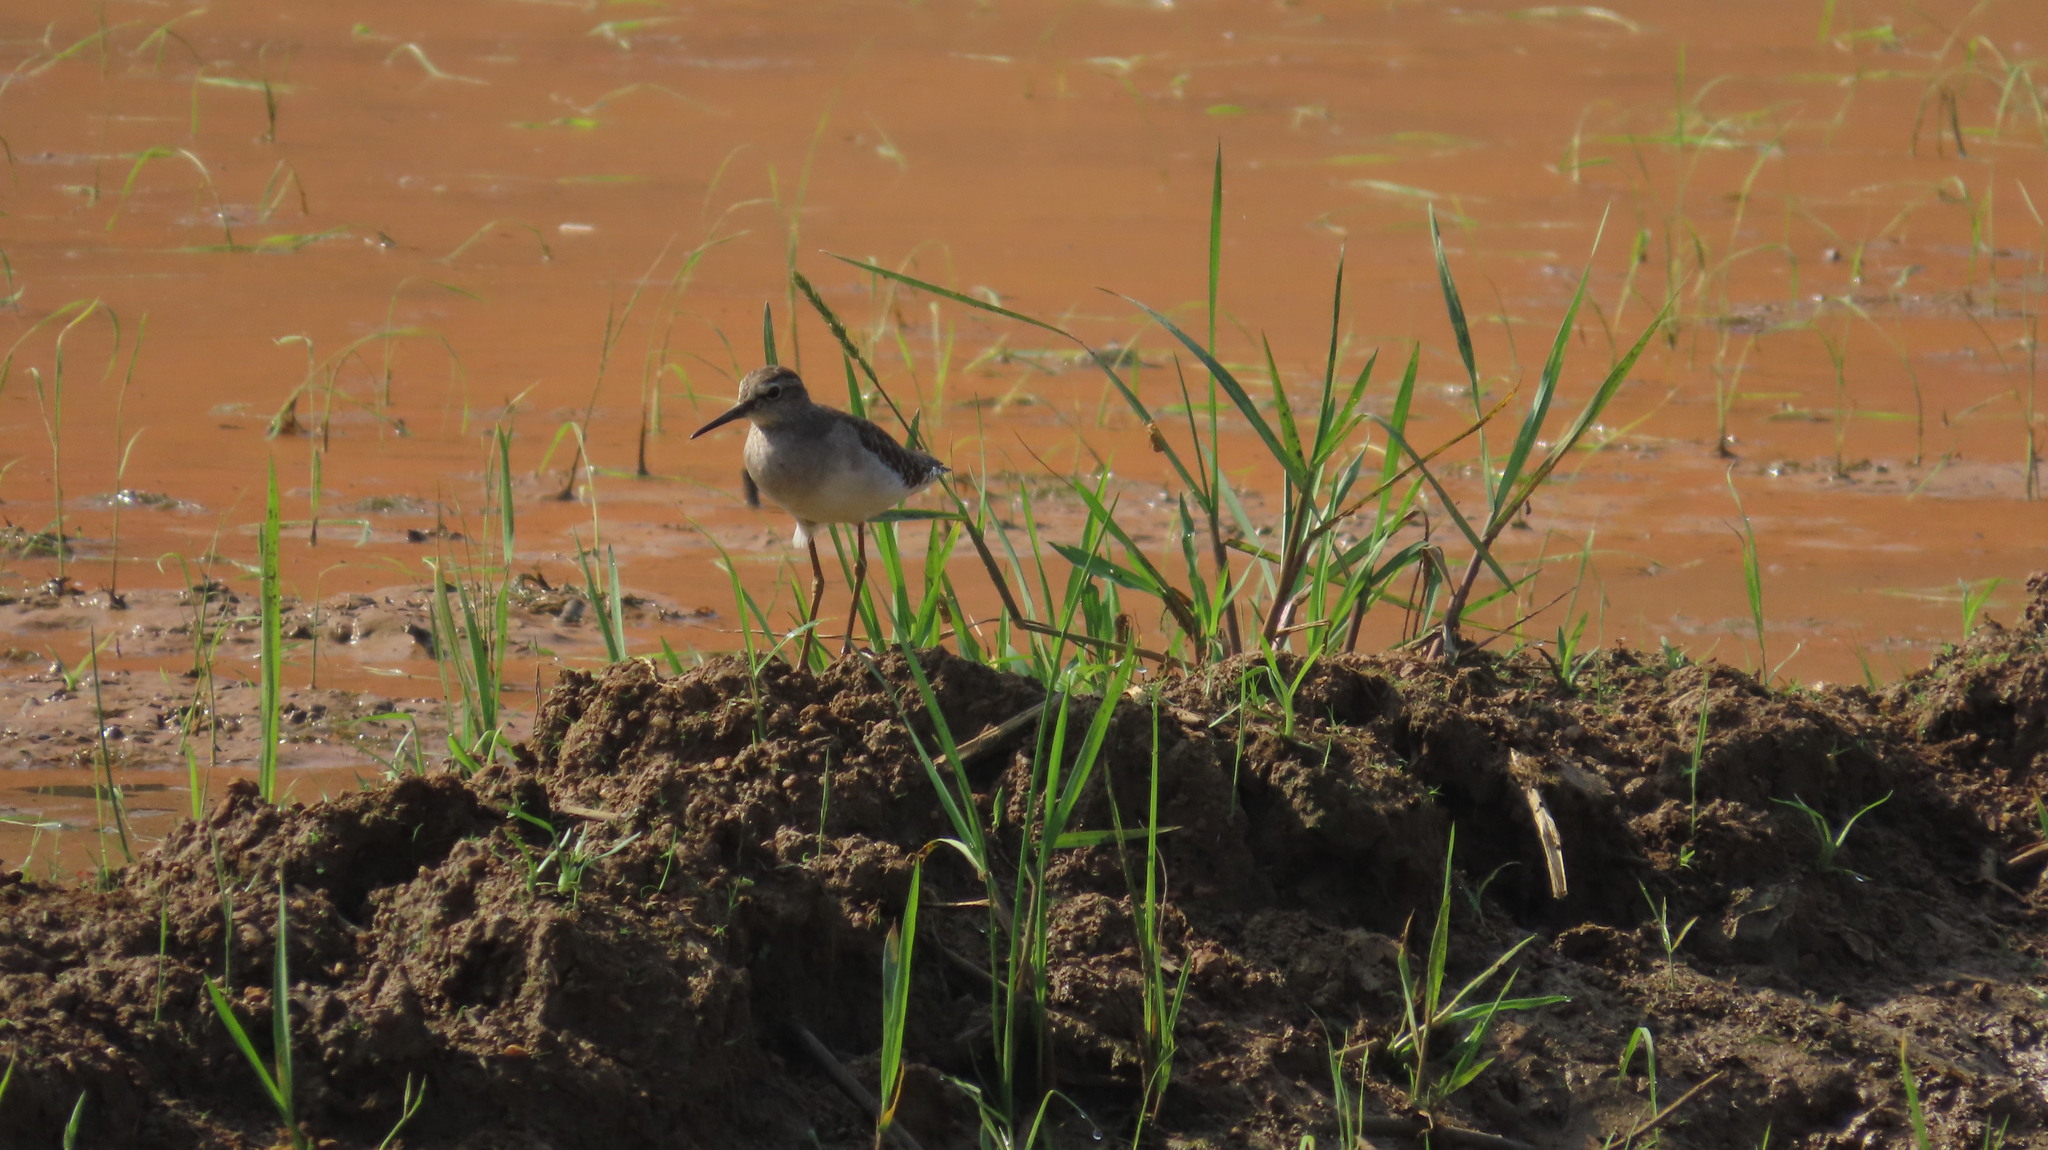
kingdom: Animalia
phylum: Chordata
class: Aves
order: Charadriiformes
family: Scolopacidae
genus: Tringa
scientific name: Tringa glareola
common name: Wood sandpiper
